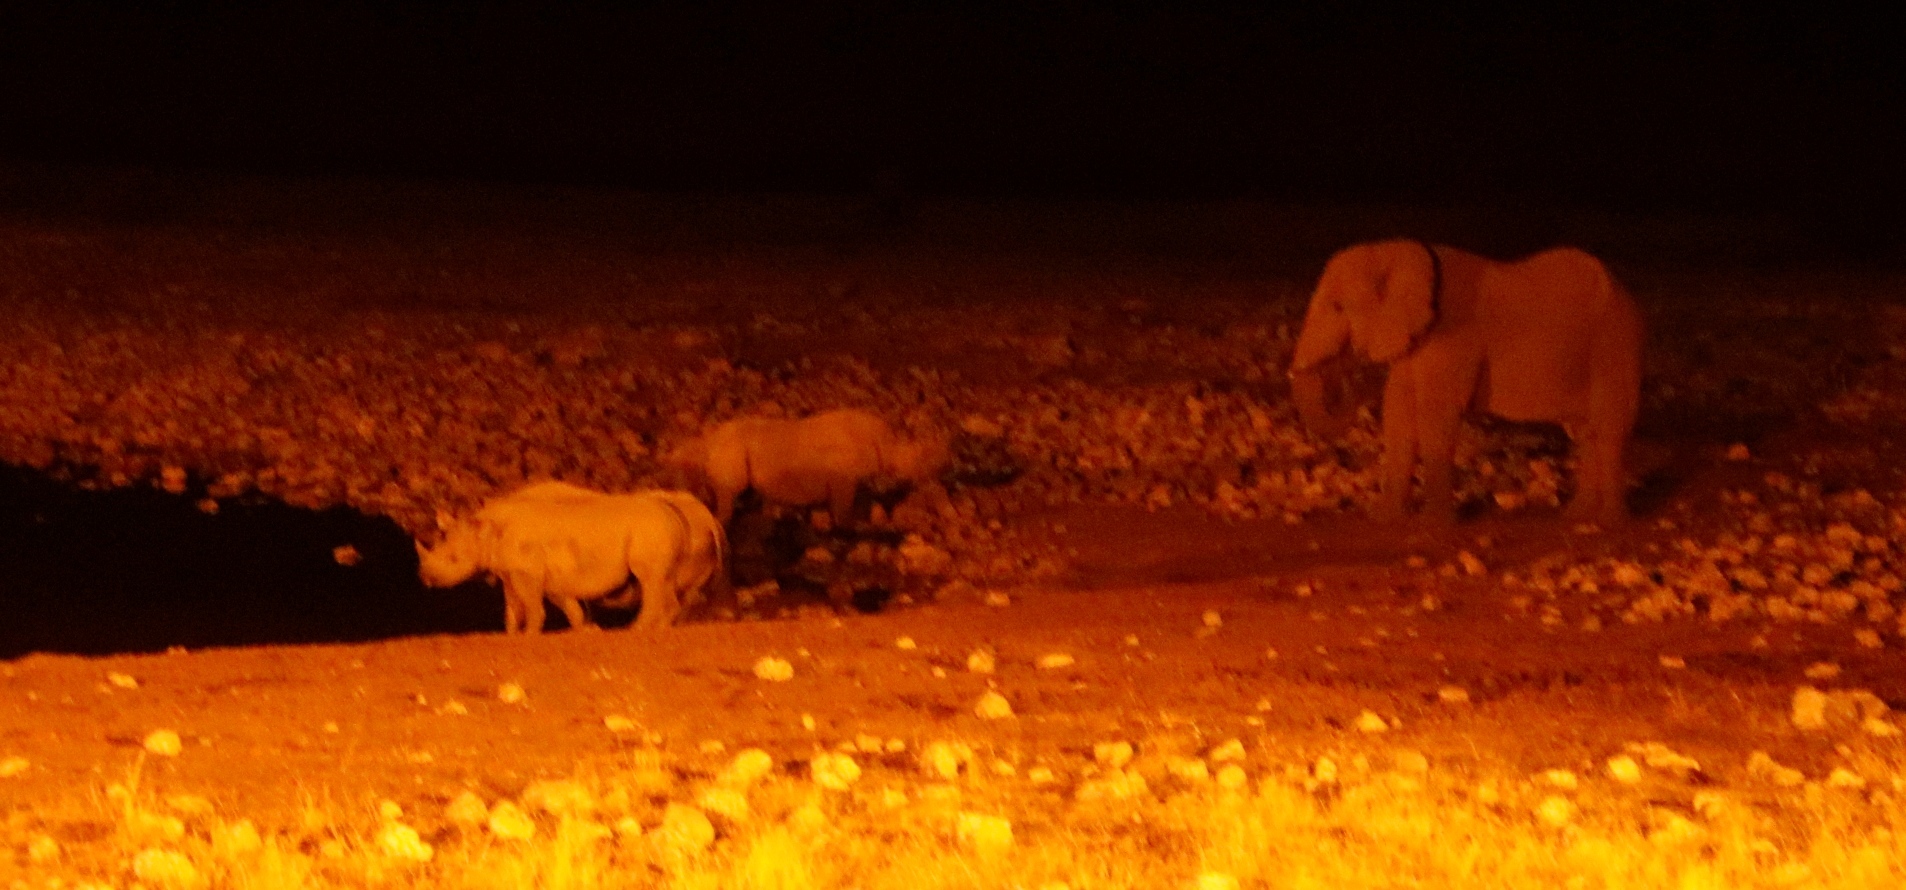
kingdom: Animalia
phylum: Chordata
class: Mammalia
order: Proboscidea
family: Elephantidae
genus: Loxodonta
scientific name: Loxodonta africana
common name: African elephant
